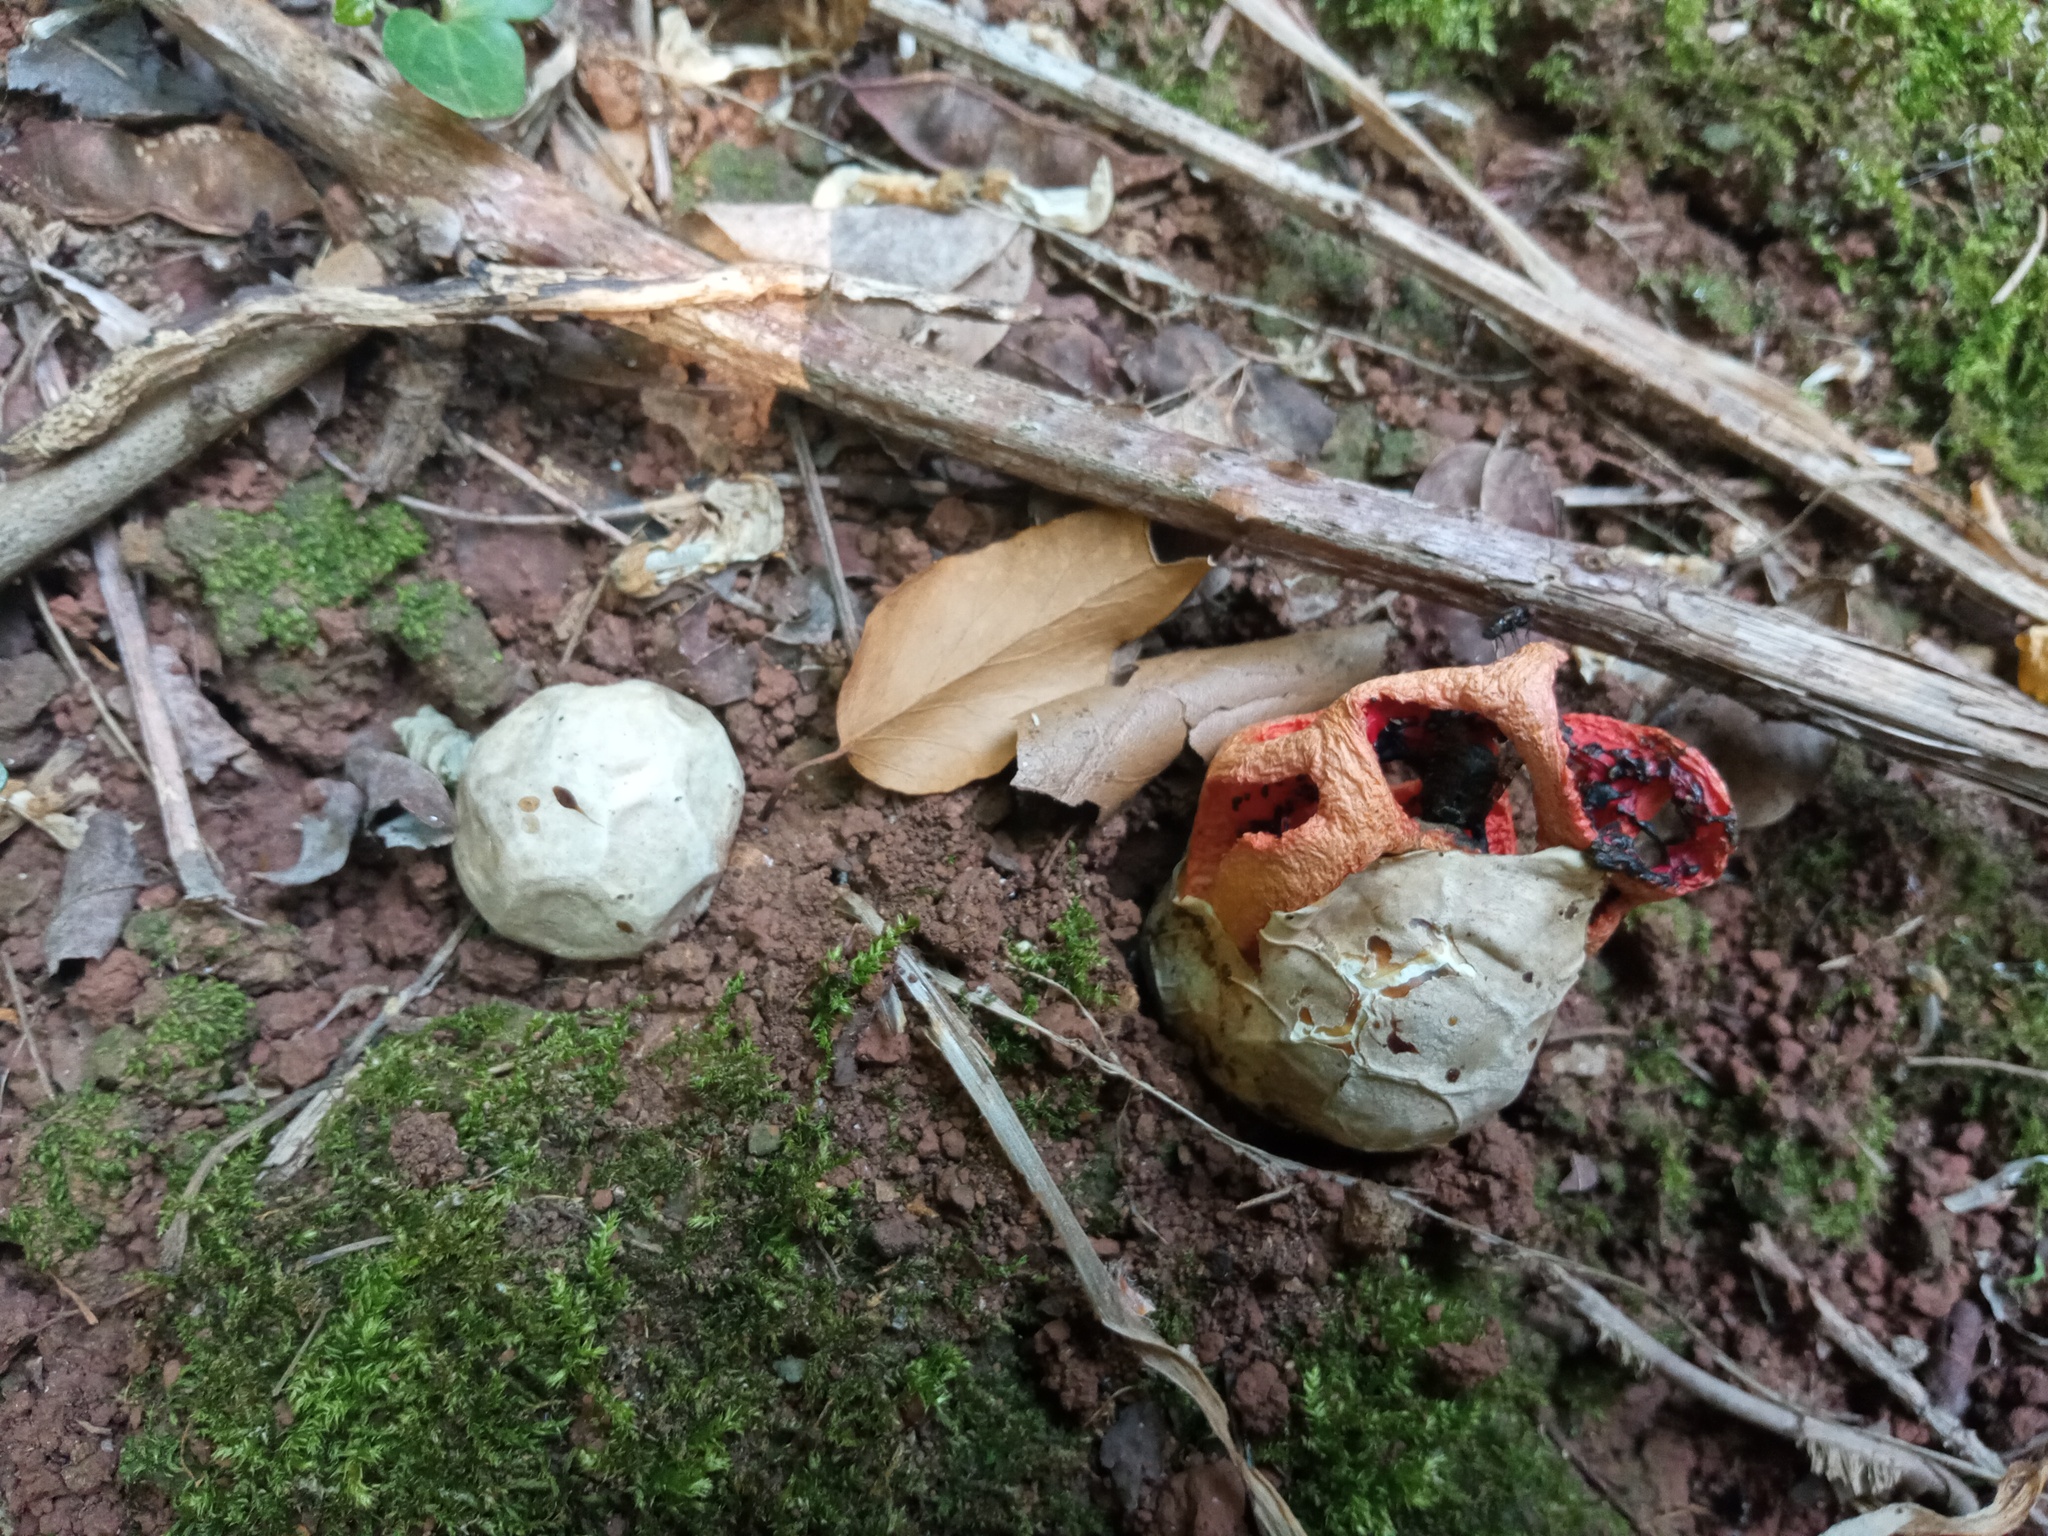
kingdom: Fungi
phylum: Basidiomycota
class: Agaricomycetes
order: Phallales
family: Phallaceae
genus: Clathrus
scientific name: Clathrus ruber
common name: Red cage
